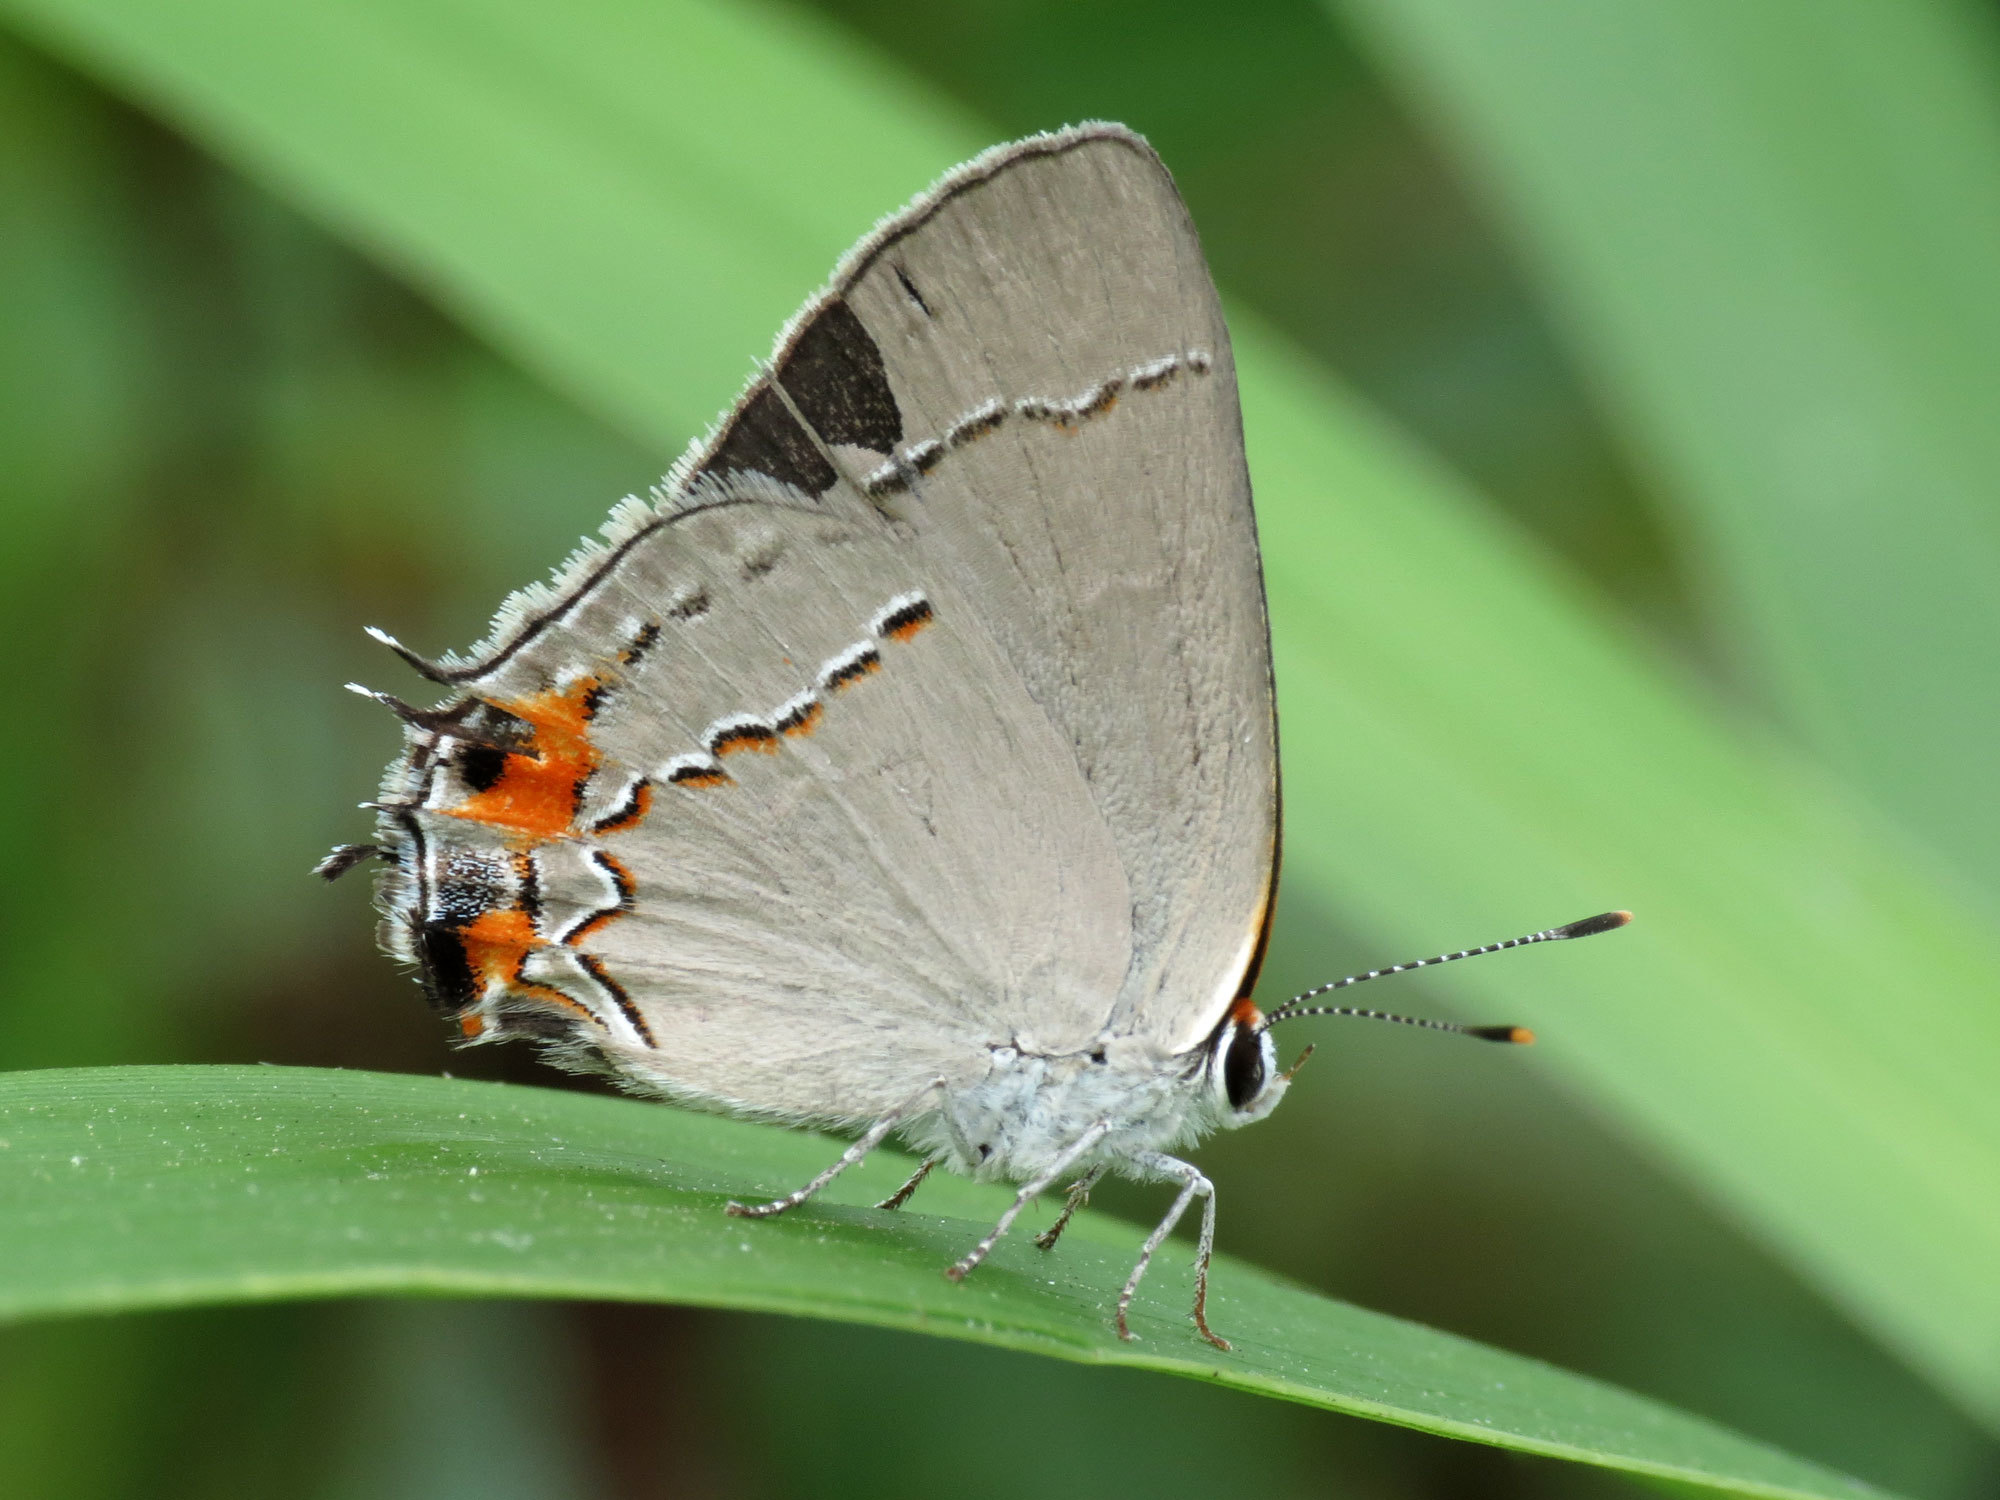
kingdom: Animalia
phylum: Arthropoda
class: Insecta
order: Lepidoptera
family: Lycaenidae
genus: Strymon
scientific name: Strymon melinus
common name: Gray hairstreak
